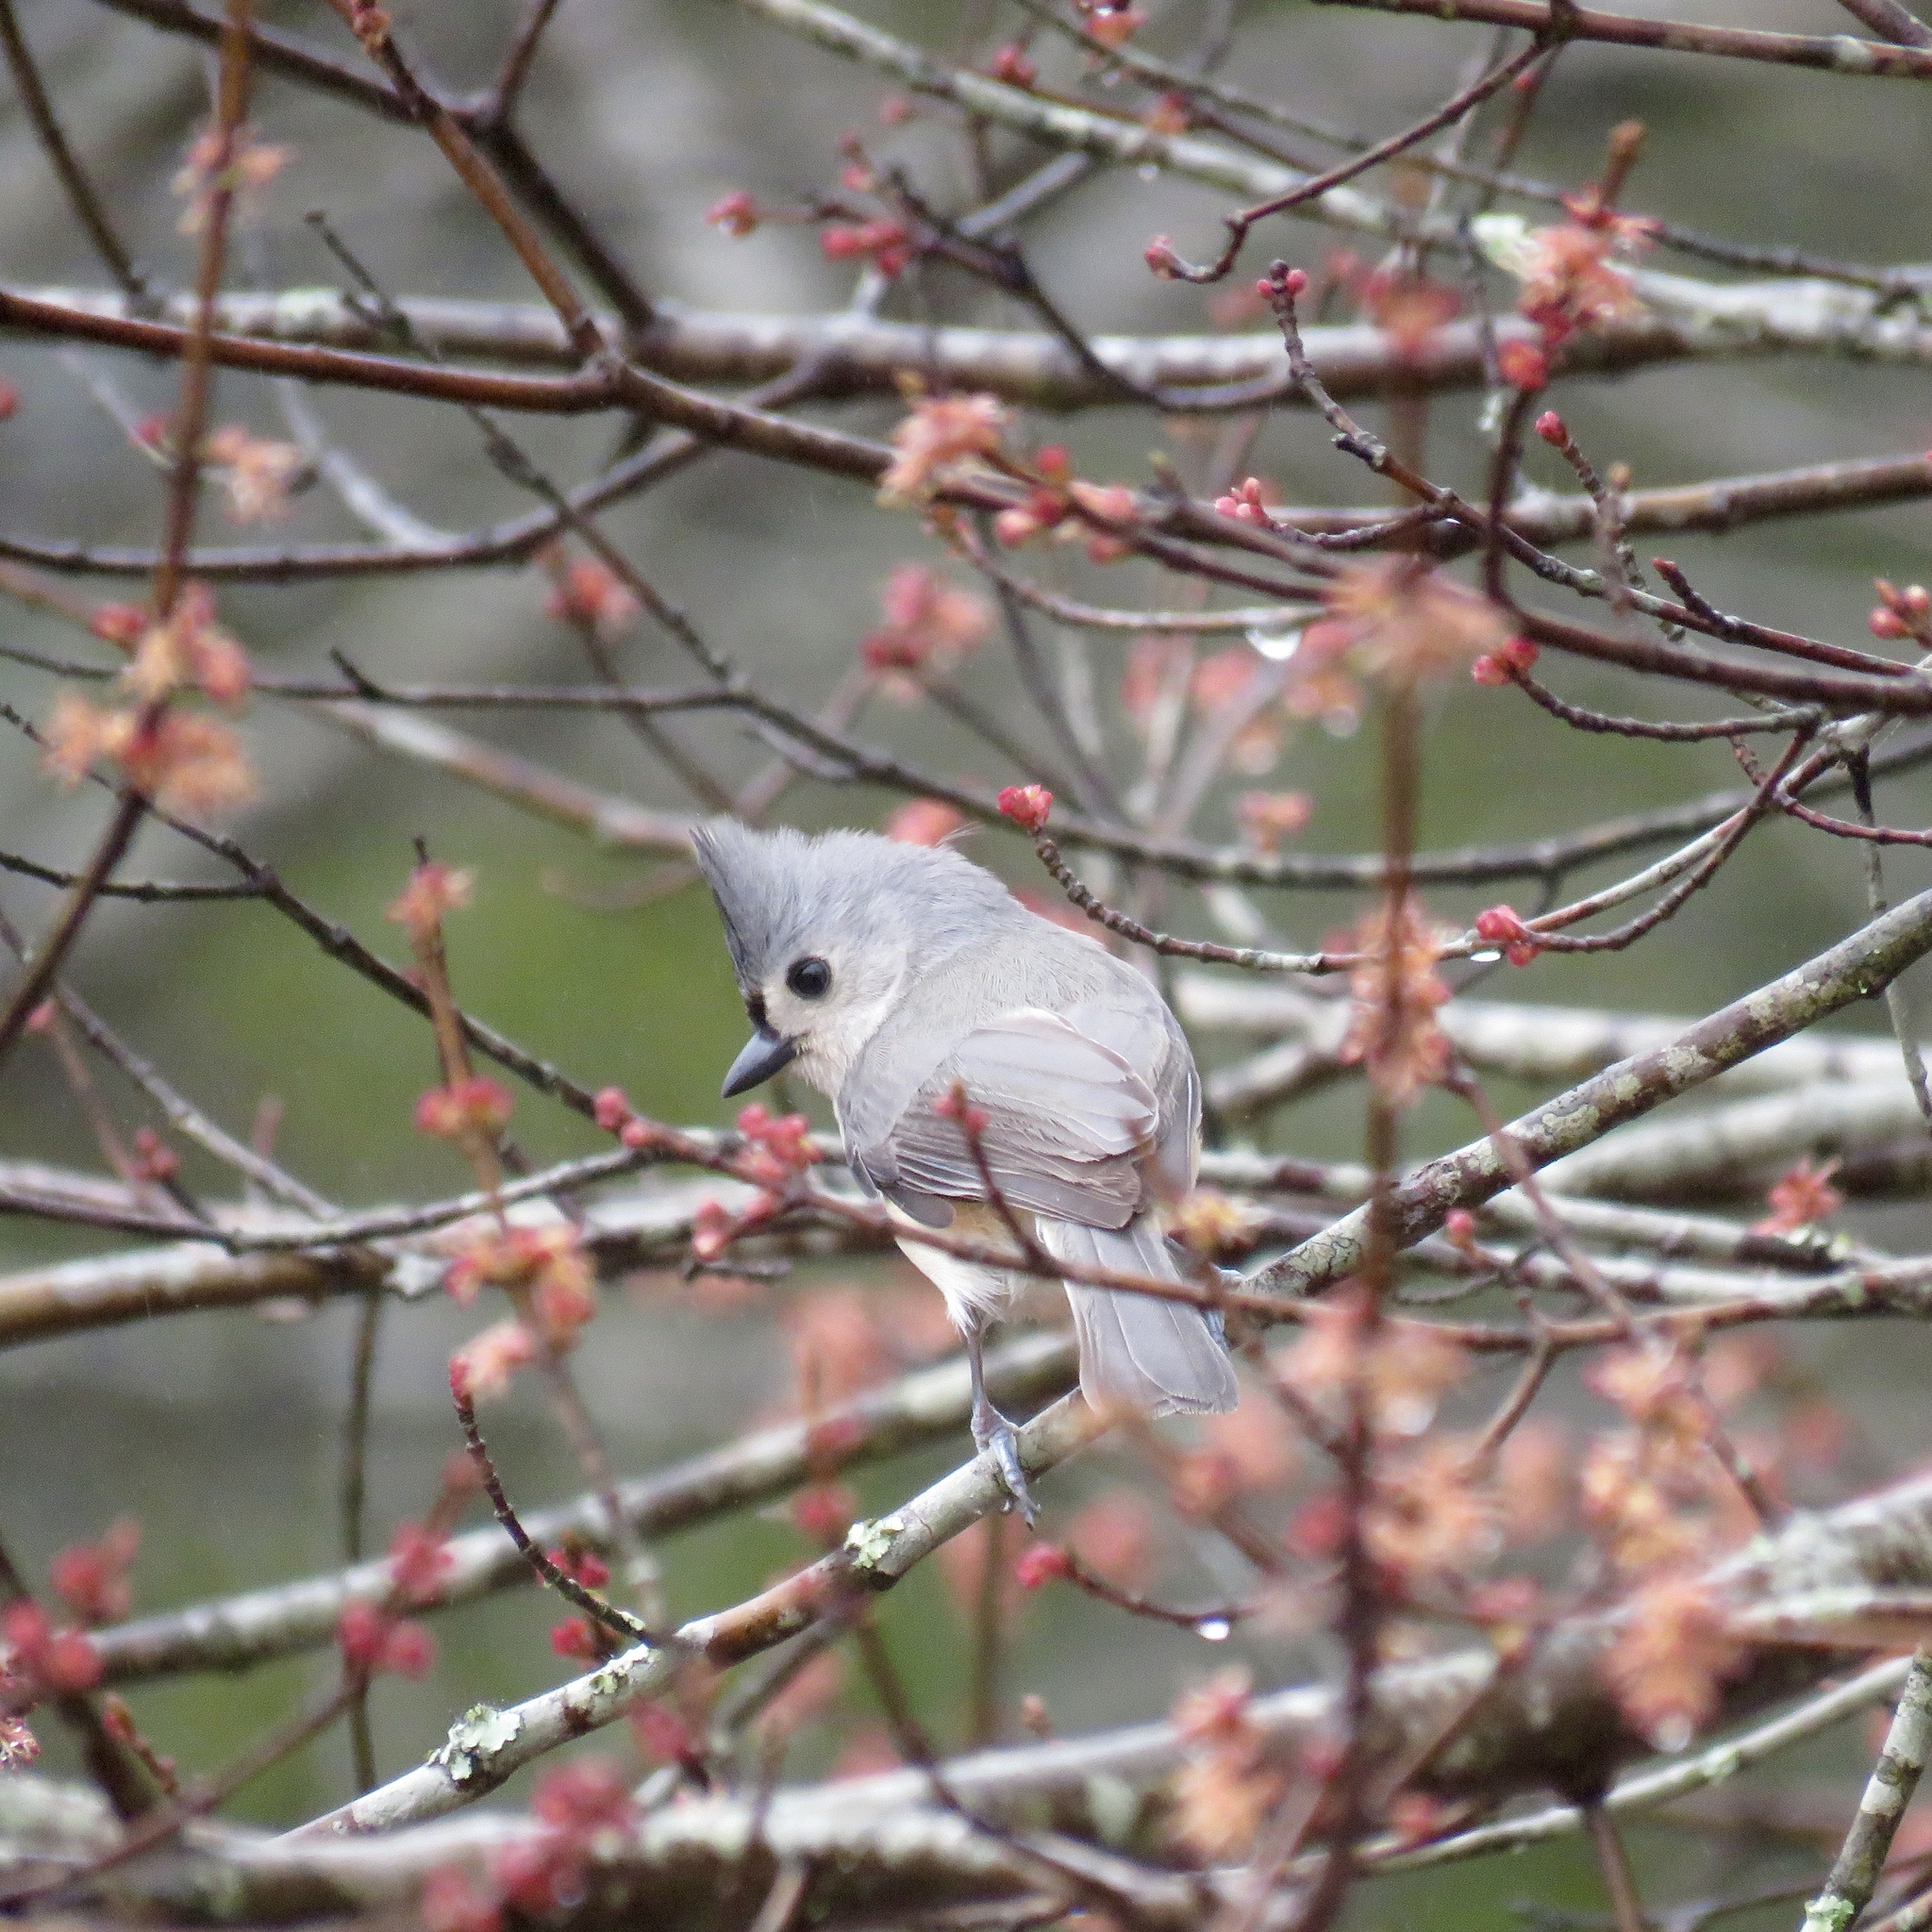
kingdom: Animalia
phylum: Chordata
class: Aves
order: Passeriformes
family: Paridae
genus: Baeolophus
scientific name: Baeolophus bicolor
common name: Tufted titmouse
